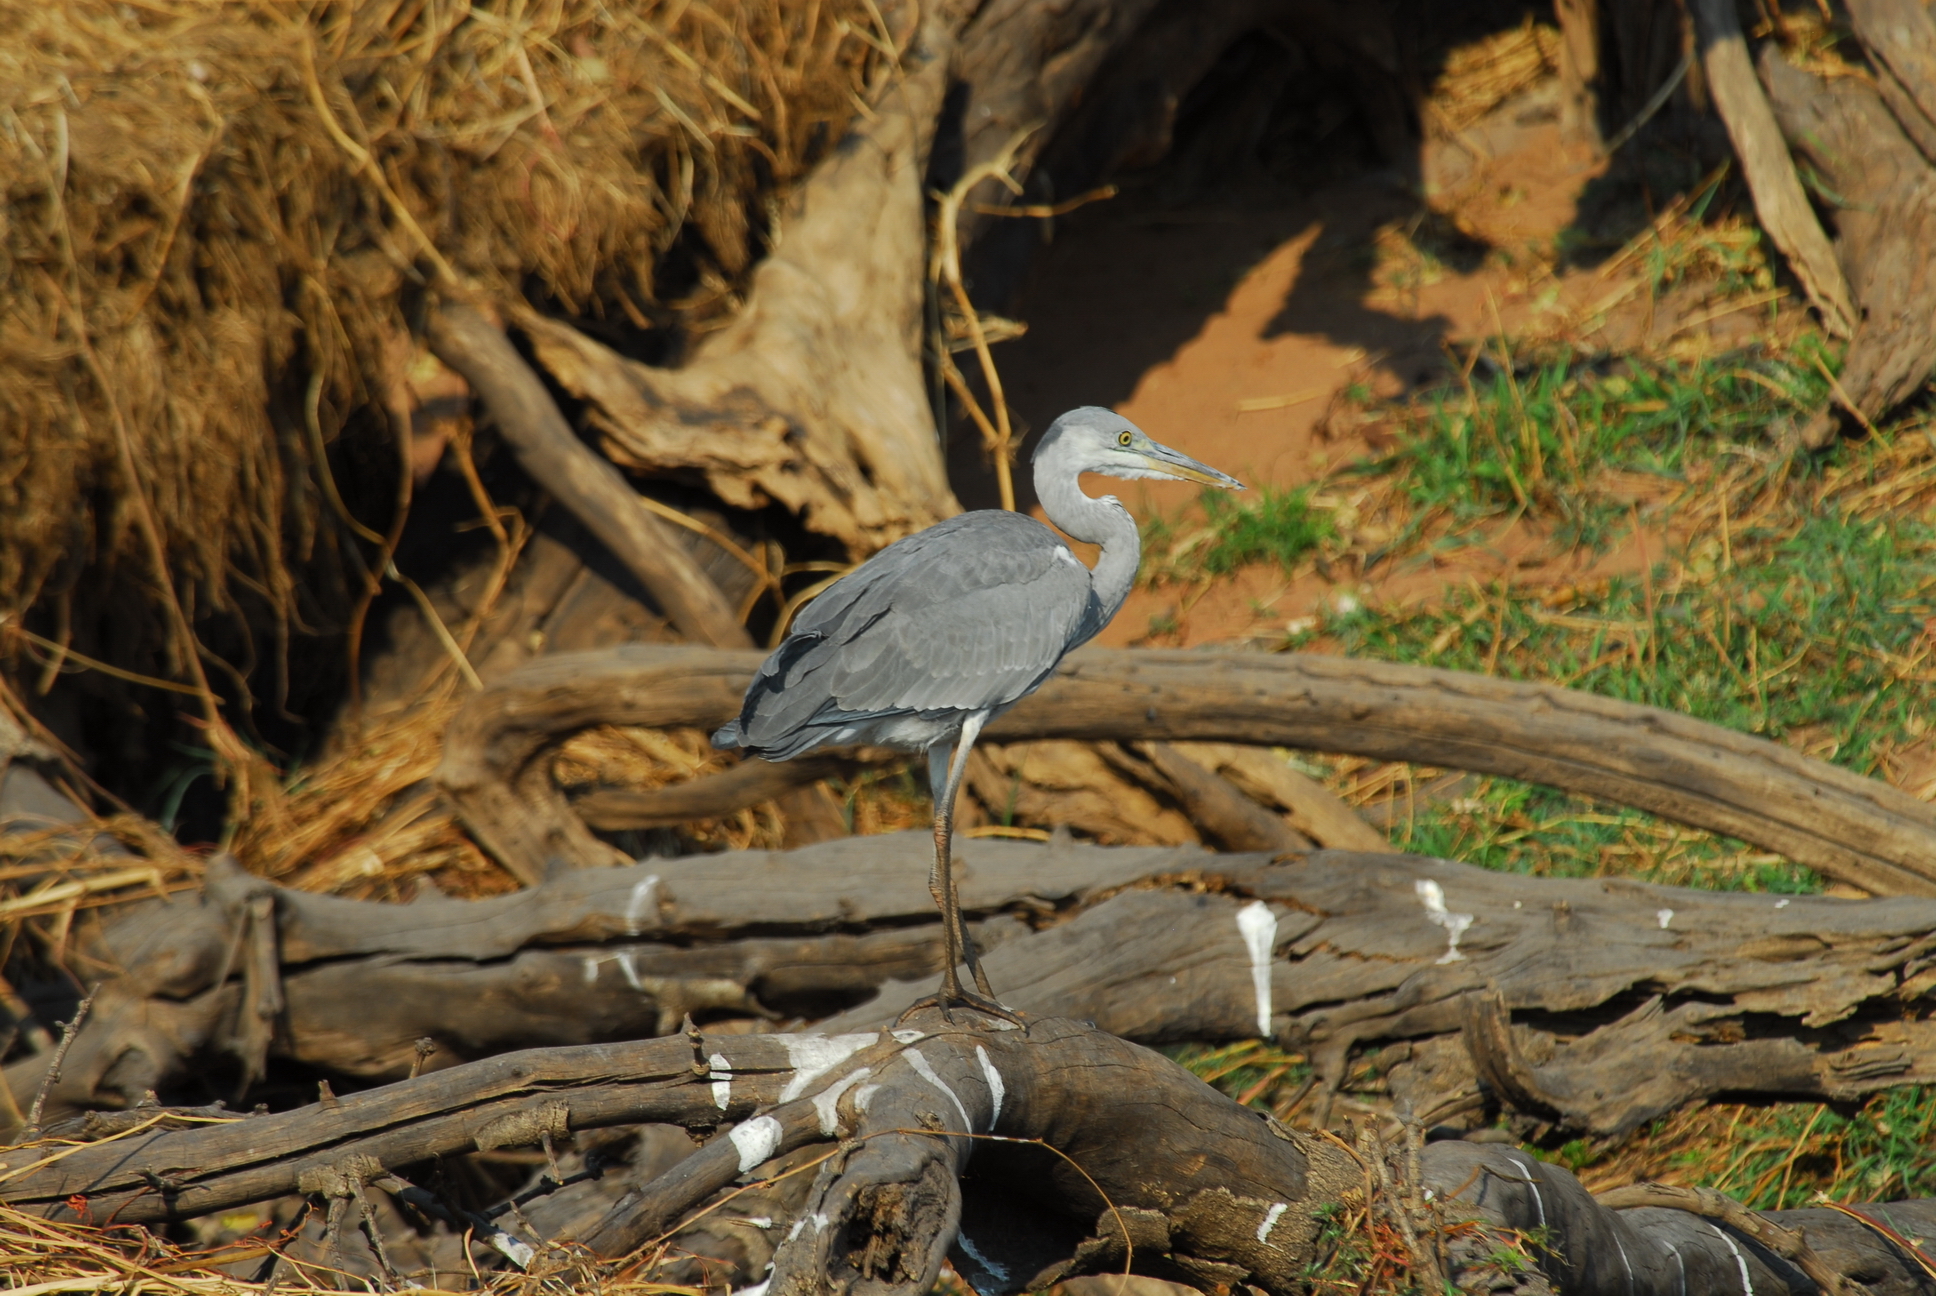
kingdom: Animalia
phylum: Chordata
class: Aves
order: Pelecaniformes
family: Ardeidae
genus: Ardea
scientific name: Ardea cinerea
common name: Grey heron
